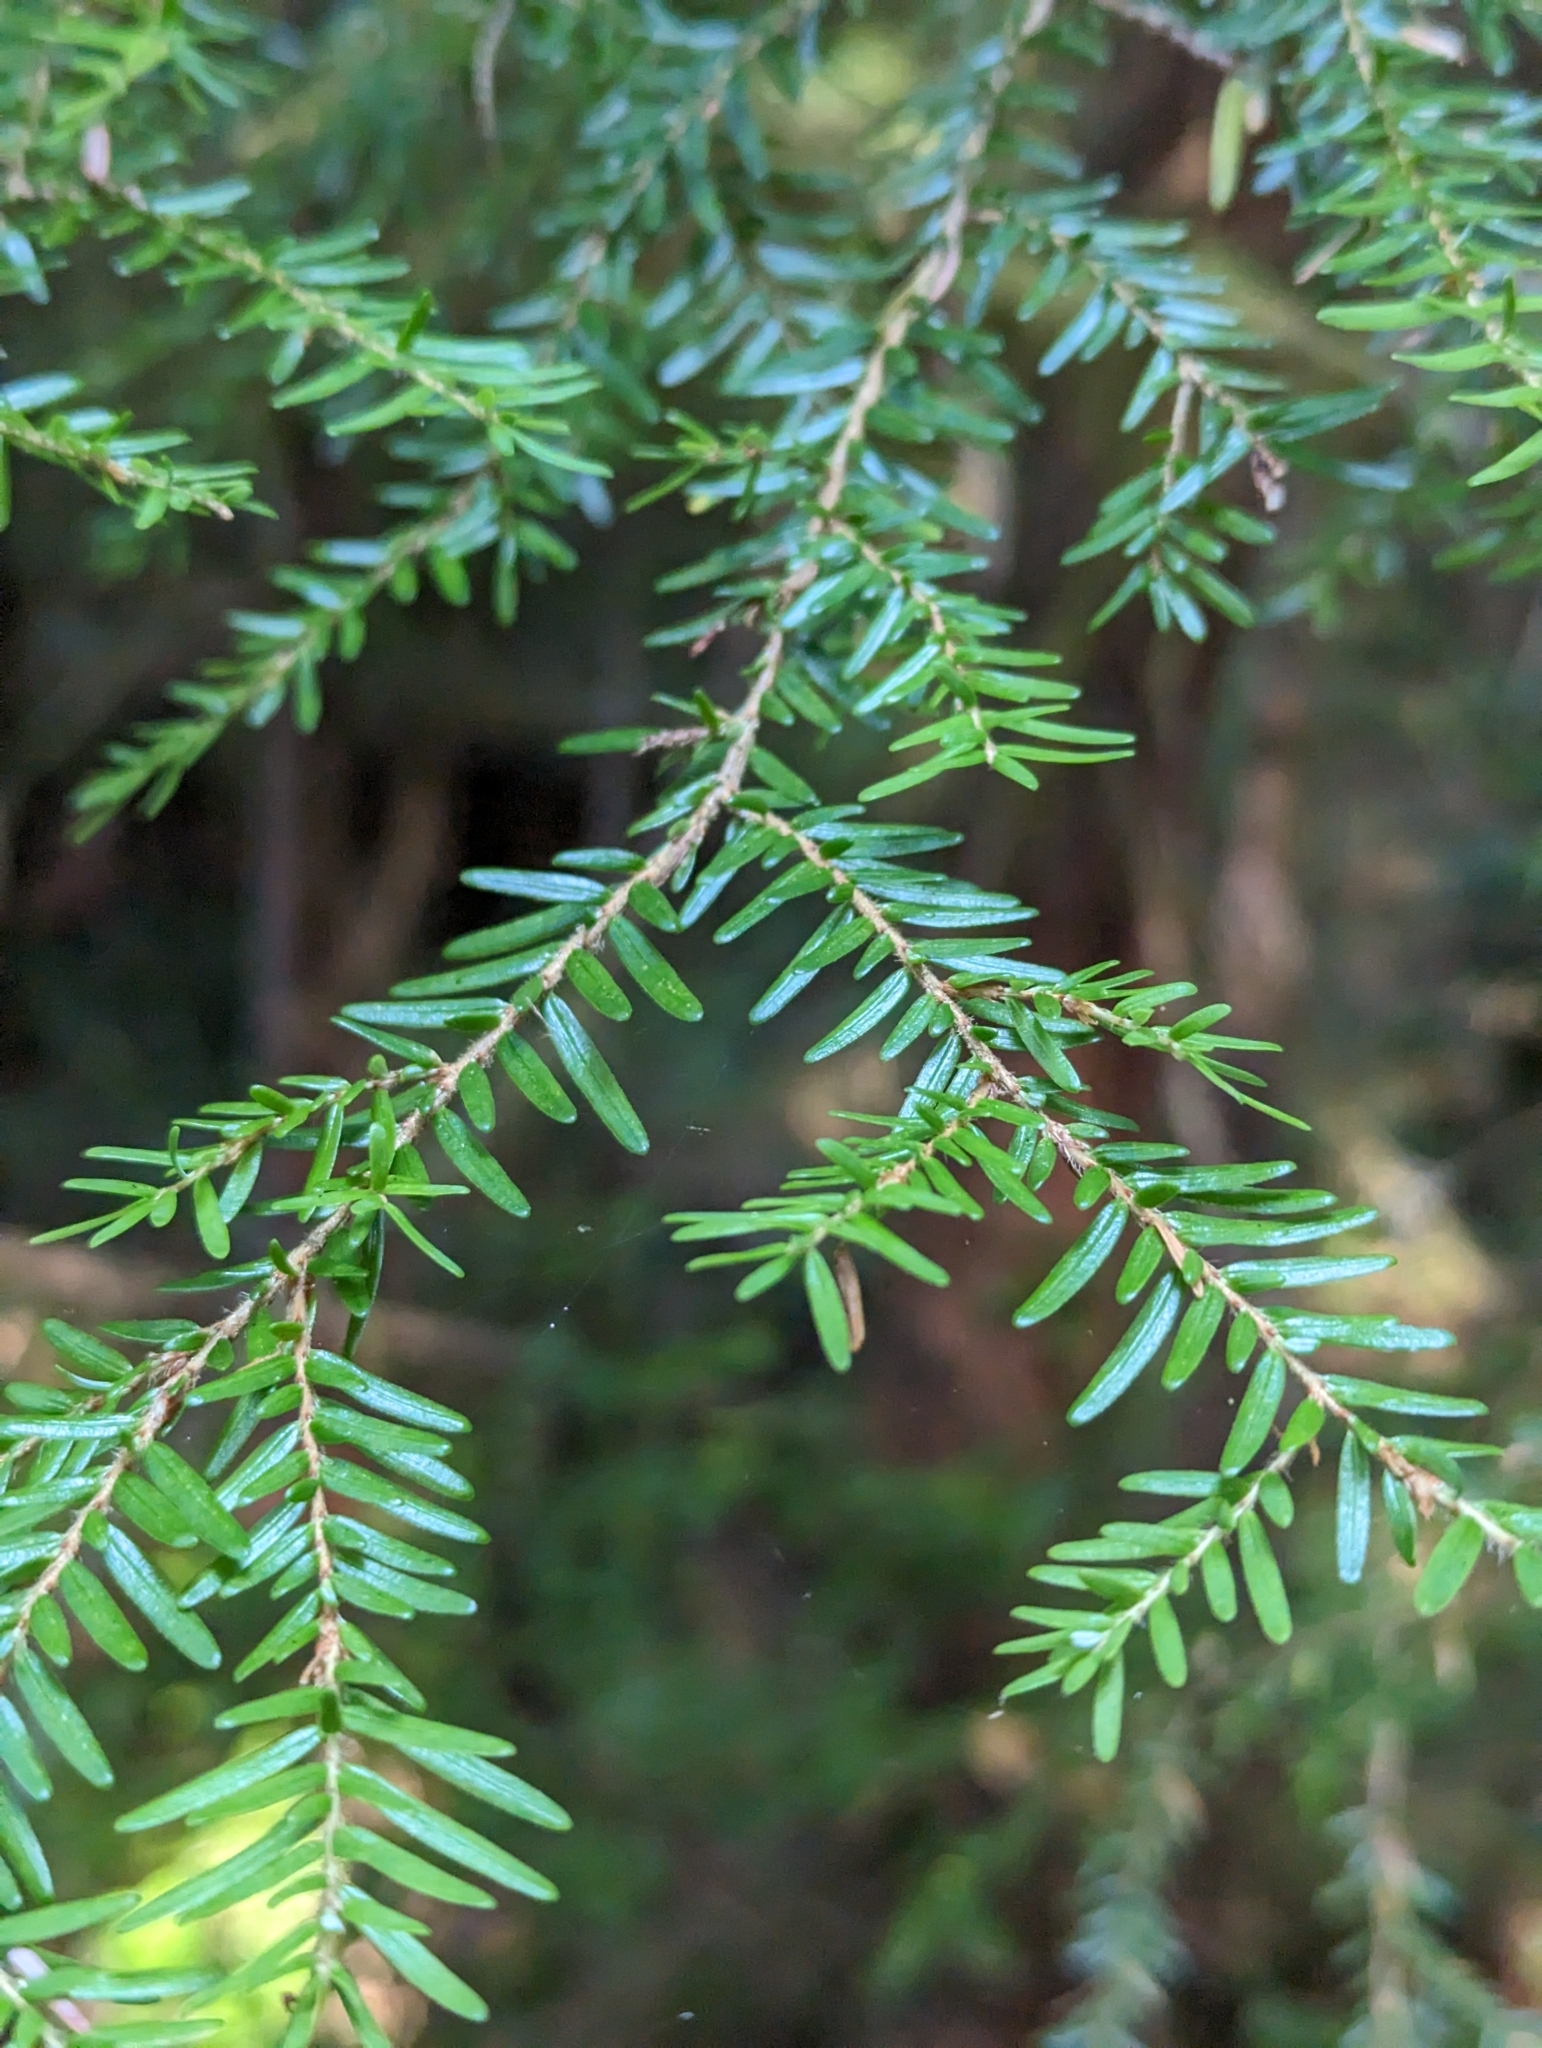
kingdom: Plantae
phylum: Tracheophyta
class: Pinopsida
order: Pinales
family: Pinaceae
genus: Tsuga
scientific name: Tsuga heterophylla
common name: Western hemlock
